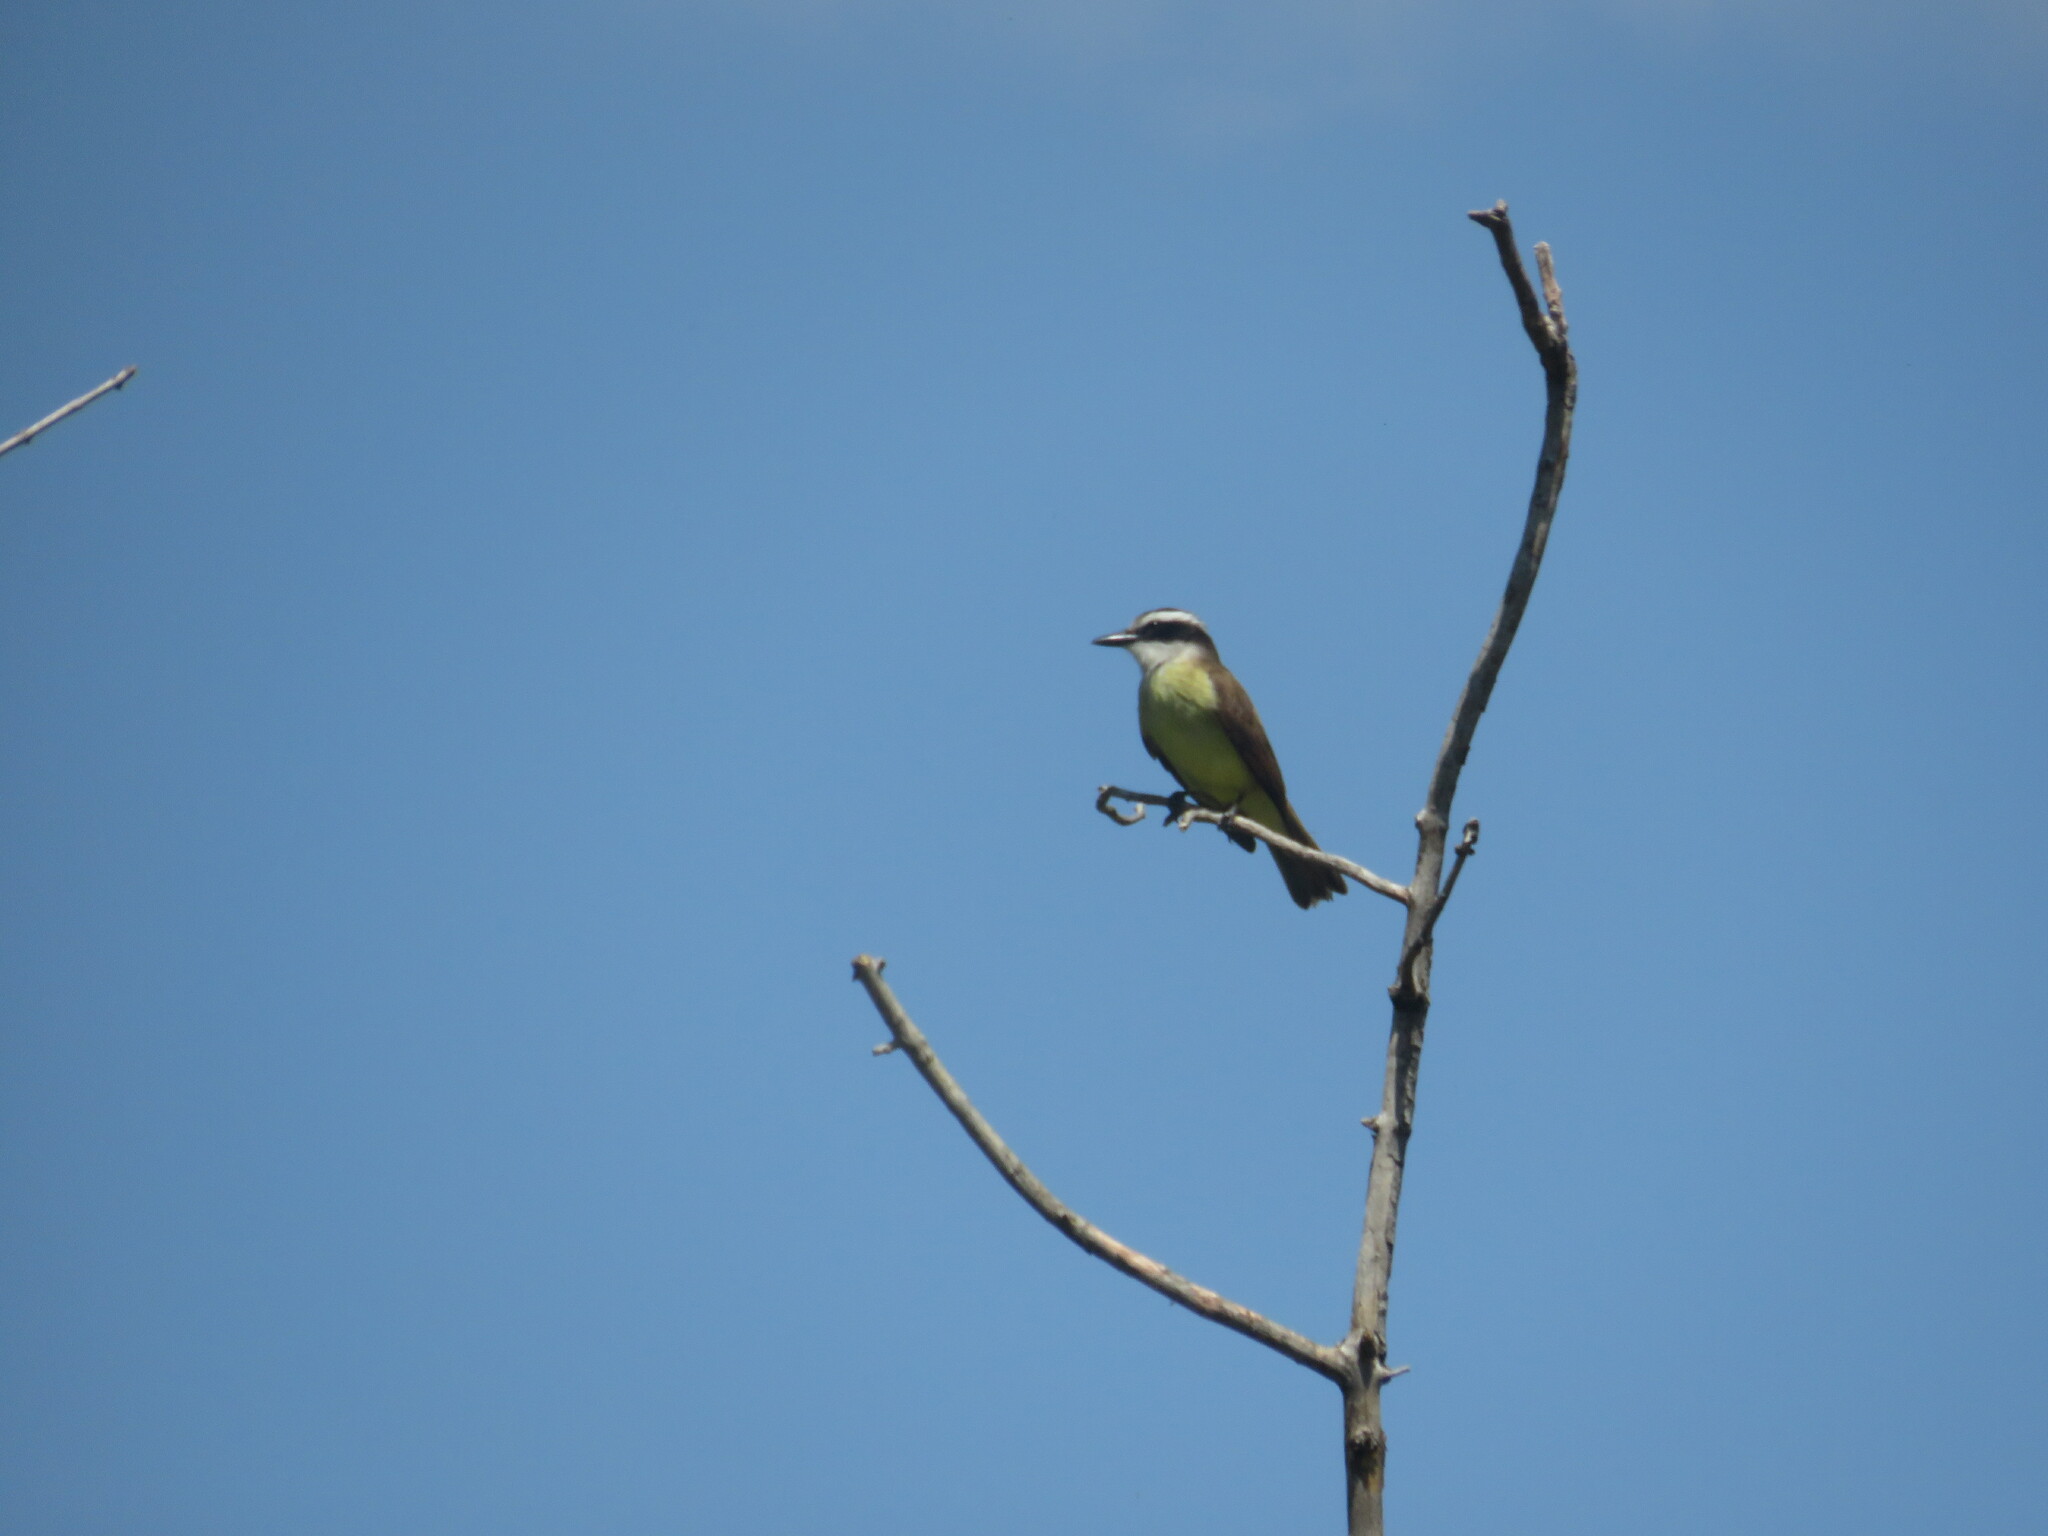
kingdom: Animalia
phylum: Chordata
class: Aves
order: Passeriformes
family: Tyrannidae
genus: Pitangus
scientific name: Pitangus sulphuratus
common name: Great kiskadee
